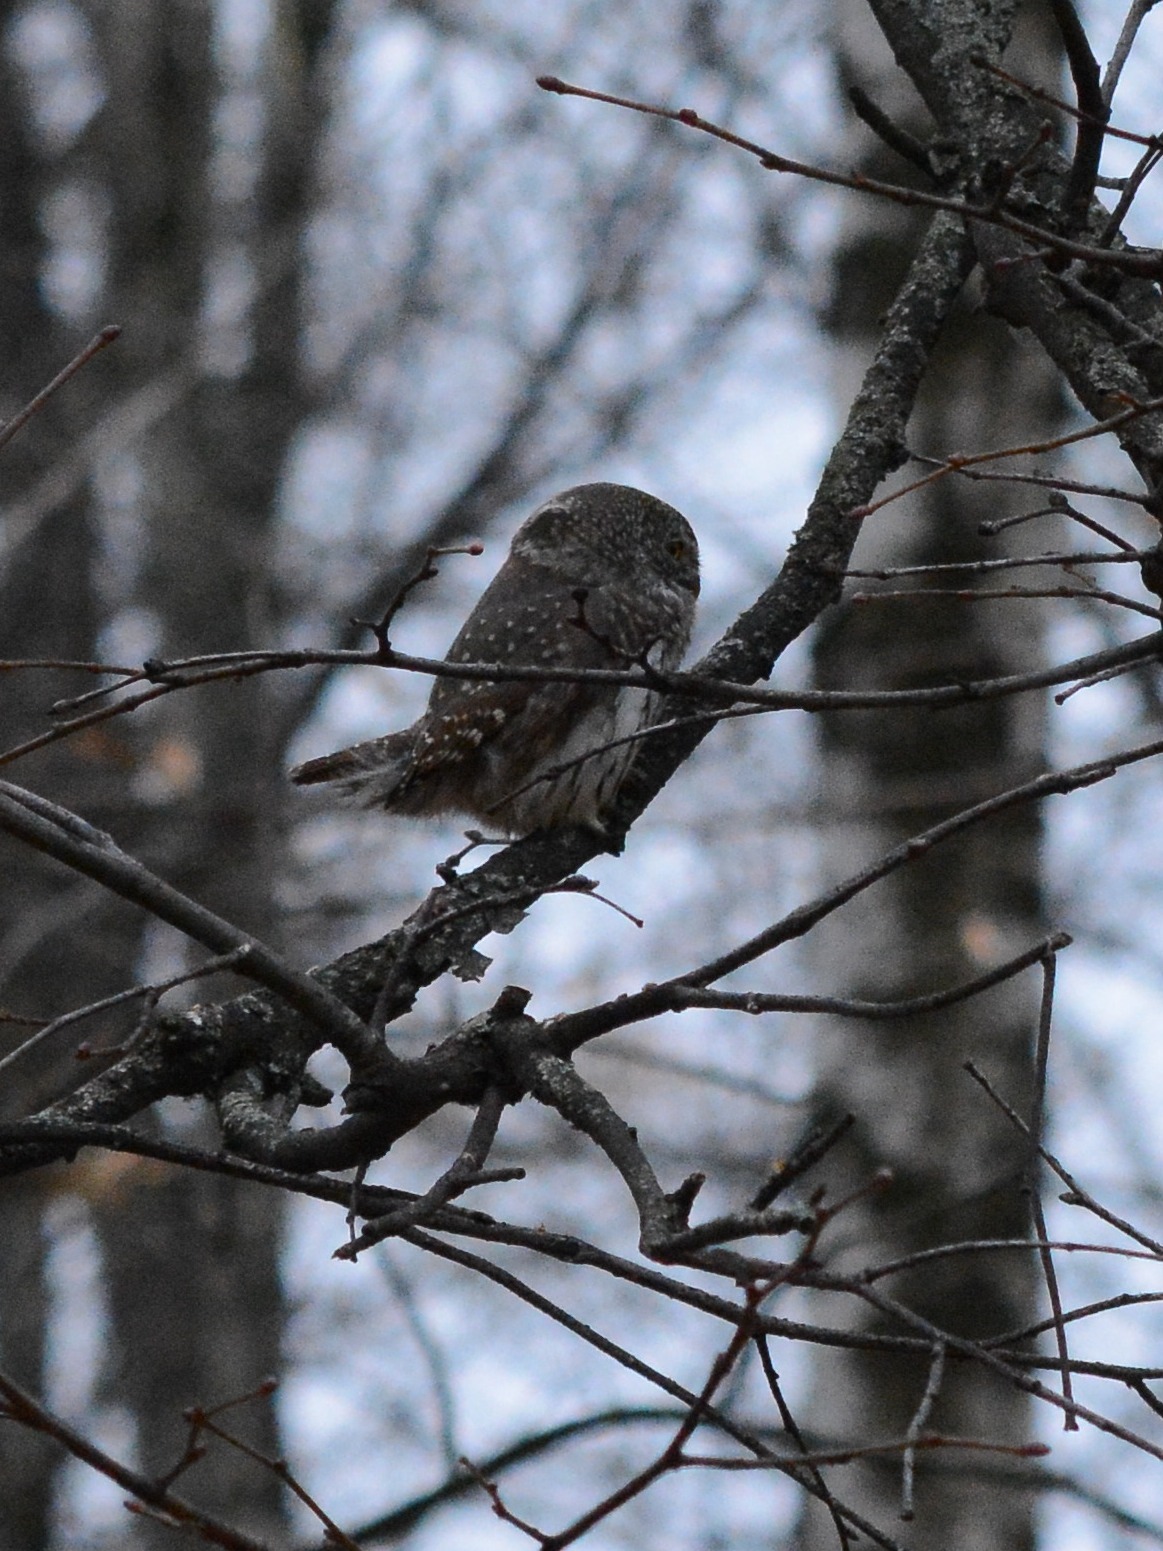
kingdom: Animalia
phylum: Chordata
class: Aves
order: Strigiformes
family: Strigidae
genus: Glaucidium
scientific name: Glaucidium passerinum
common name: Eurasian pygmy owl
